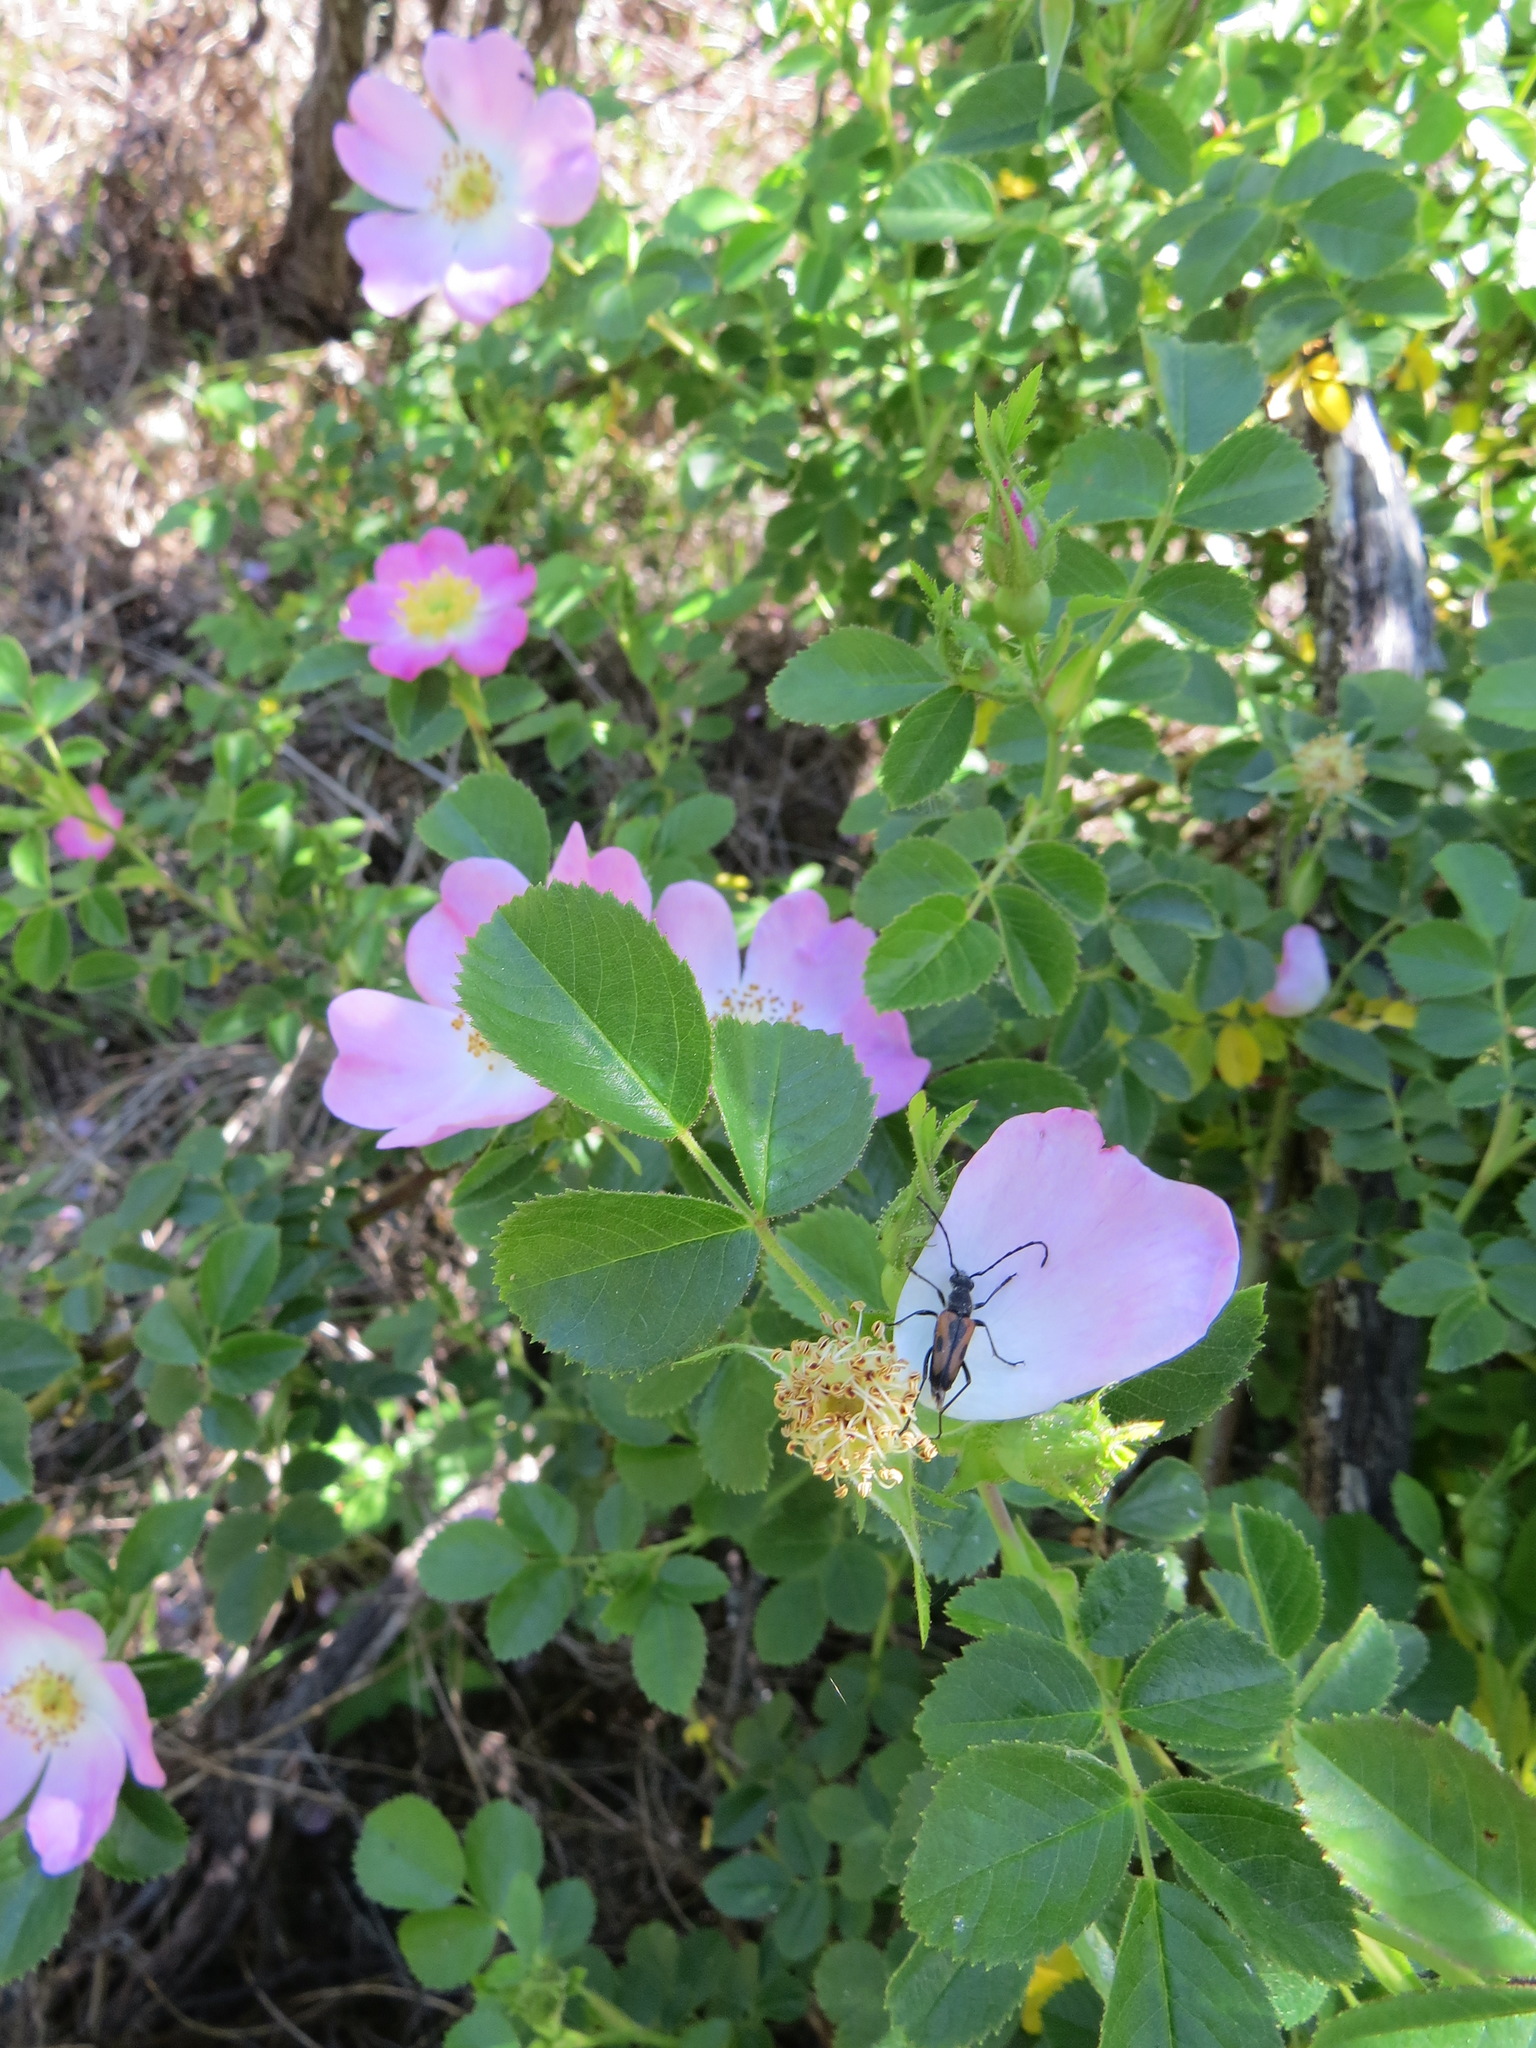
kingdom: Animalia
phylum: Arthropoda
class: Insecta
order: Coleoptera
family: Cerambycidae
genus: Anastrangalia
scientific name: Anastrangalia laetifica
